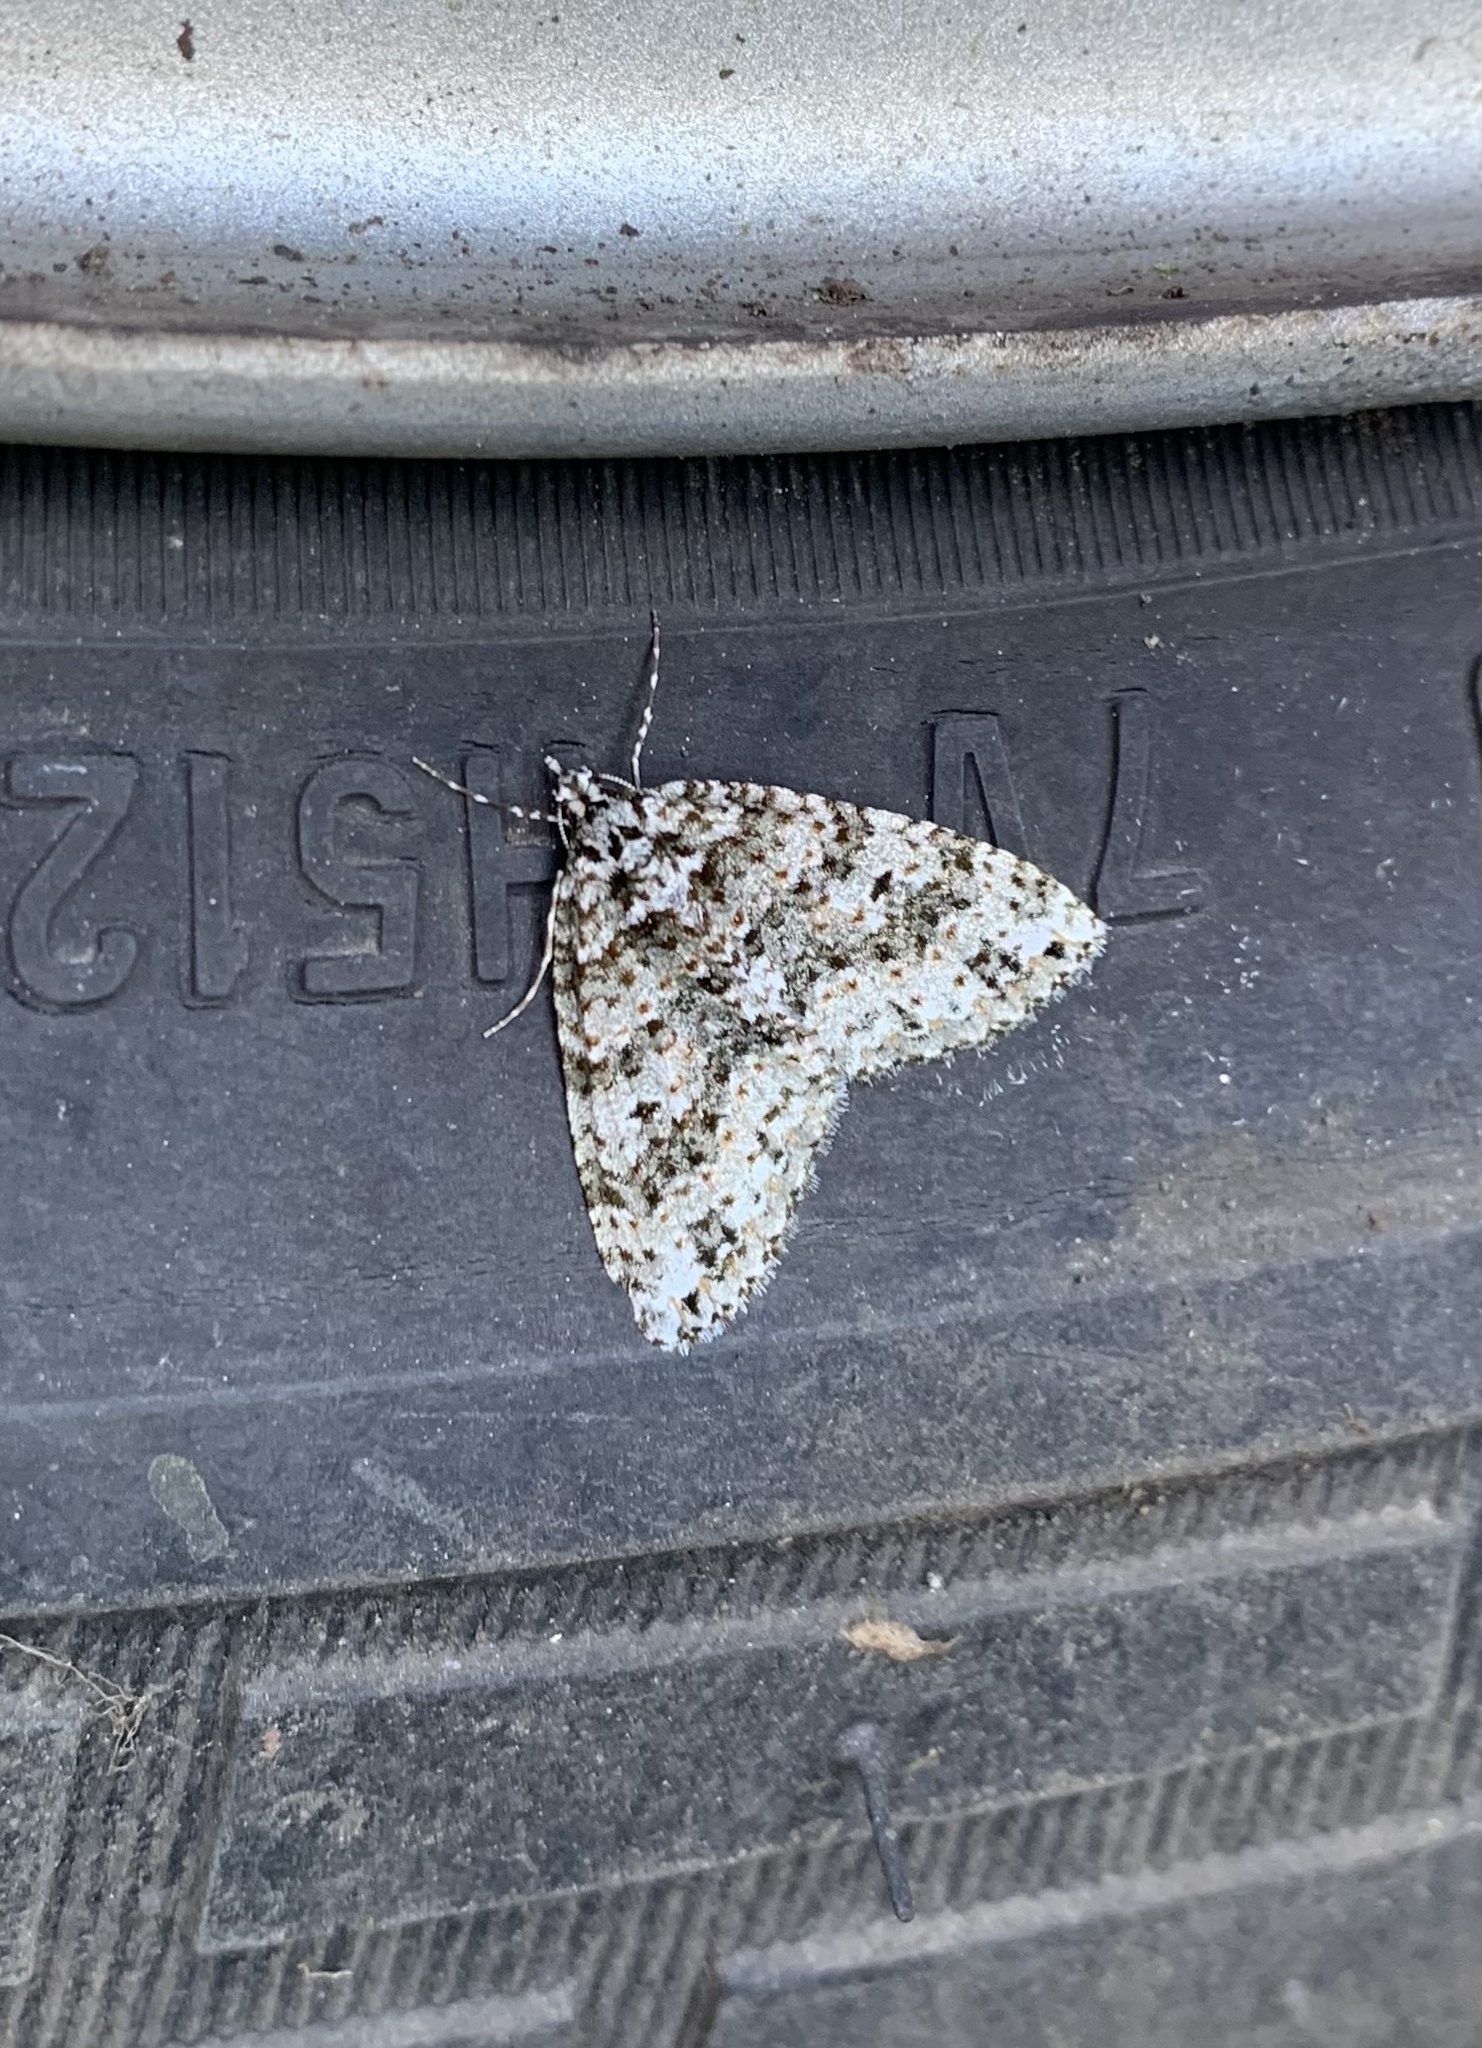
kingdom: Animalia
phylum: Arthropoda
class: Insecta
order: Lepidoptera
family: Geometridae
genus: Hoplosauris
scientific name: Hoplosauris granitata
